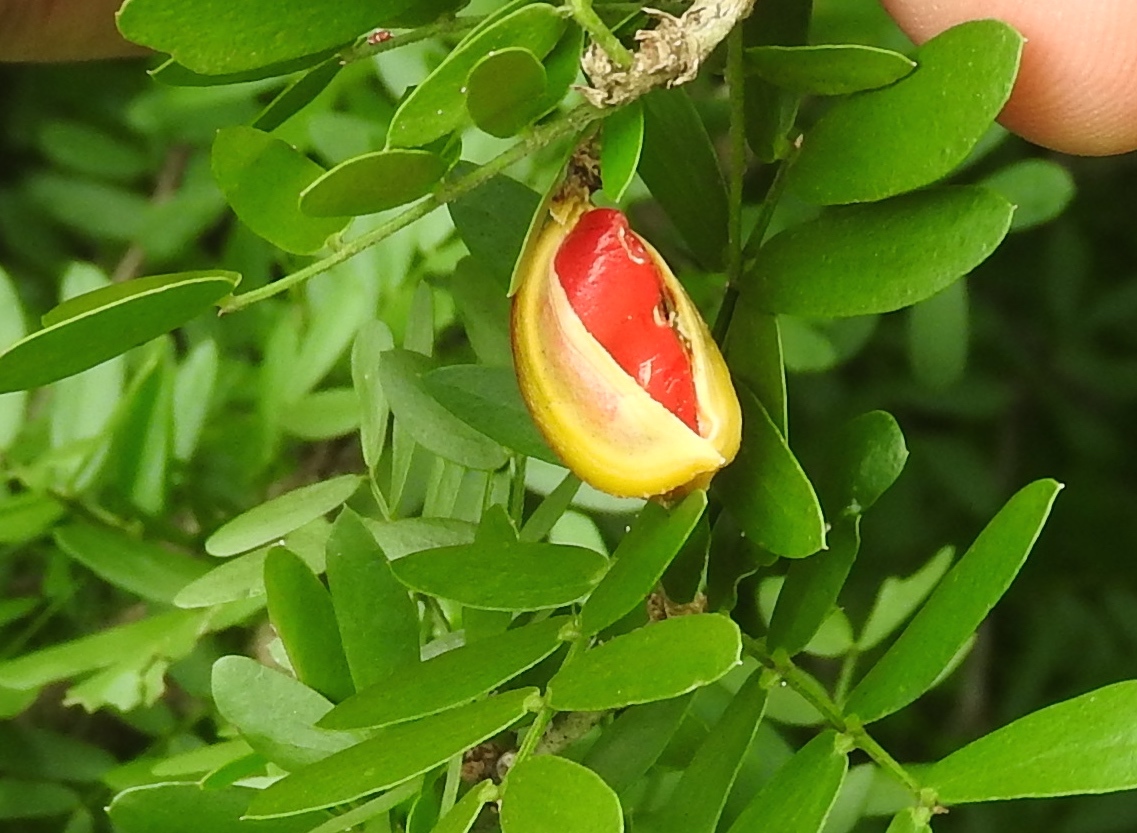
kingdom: Plantae
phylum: Tracheophyta
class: Magnoliopsida
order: Zygophyllales
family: Zygophyllaceae
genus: Guaiacum
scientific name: Guaiacum coulteri
